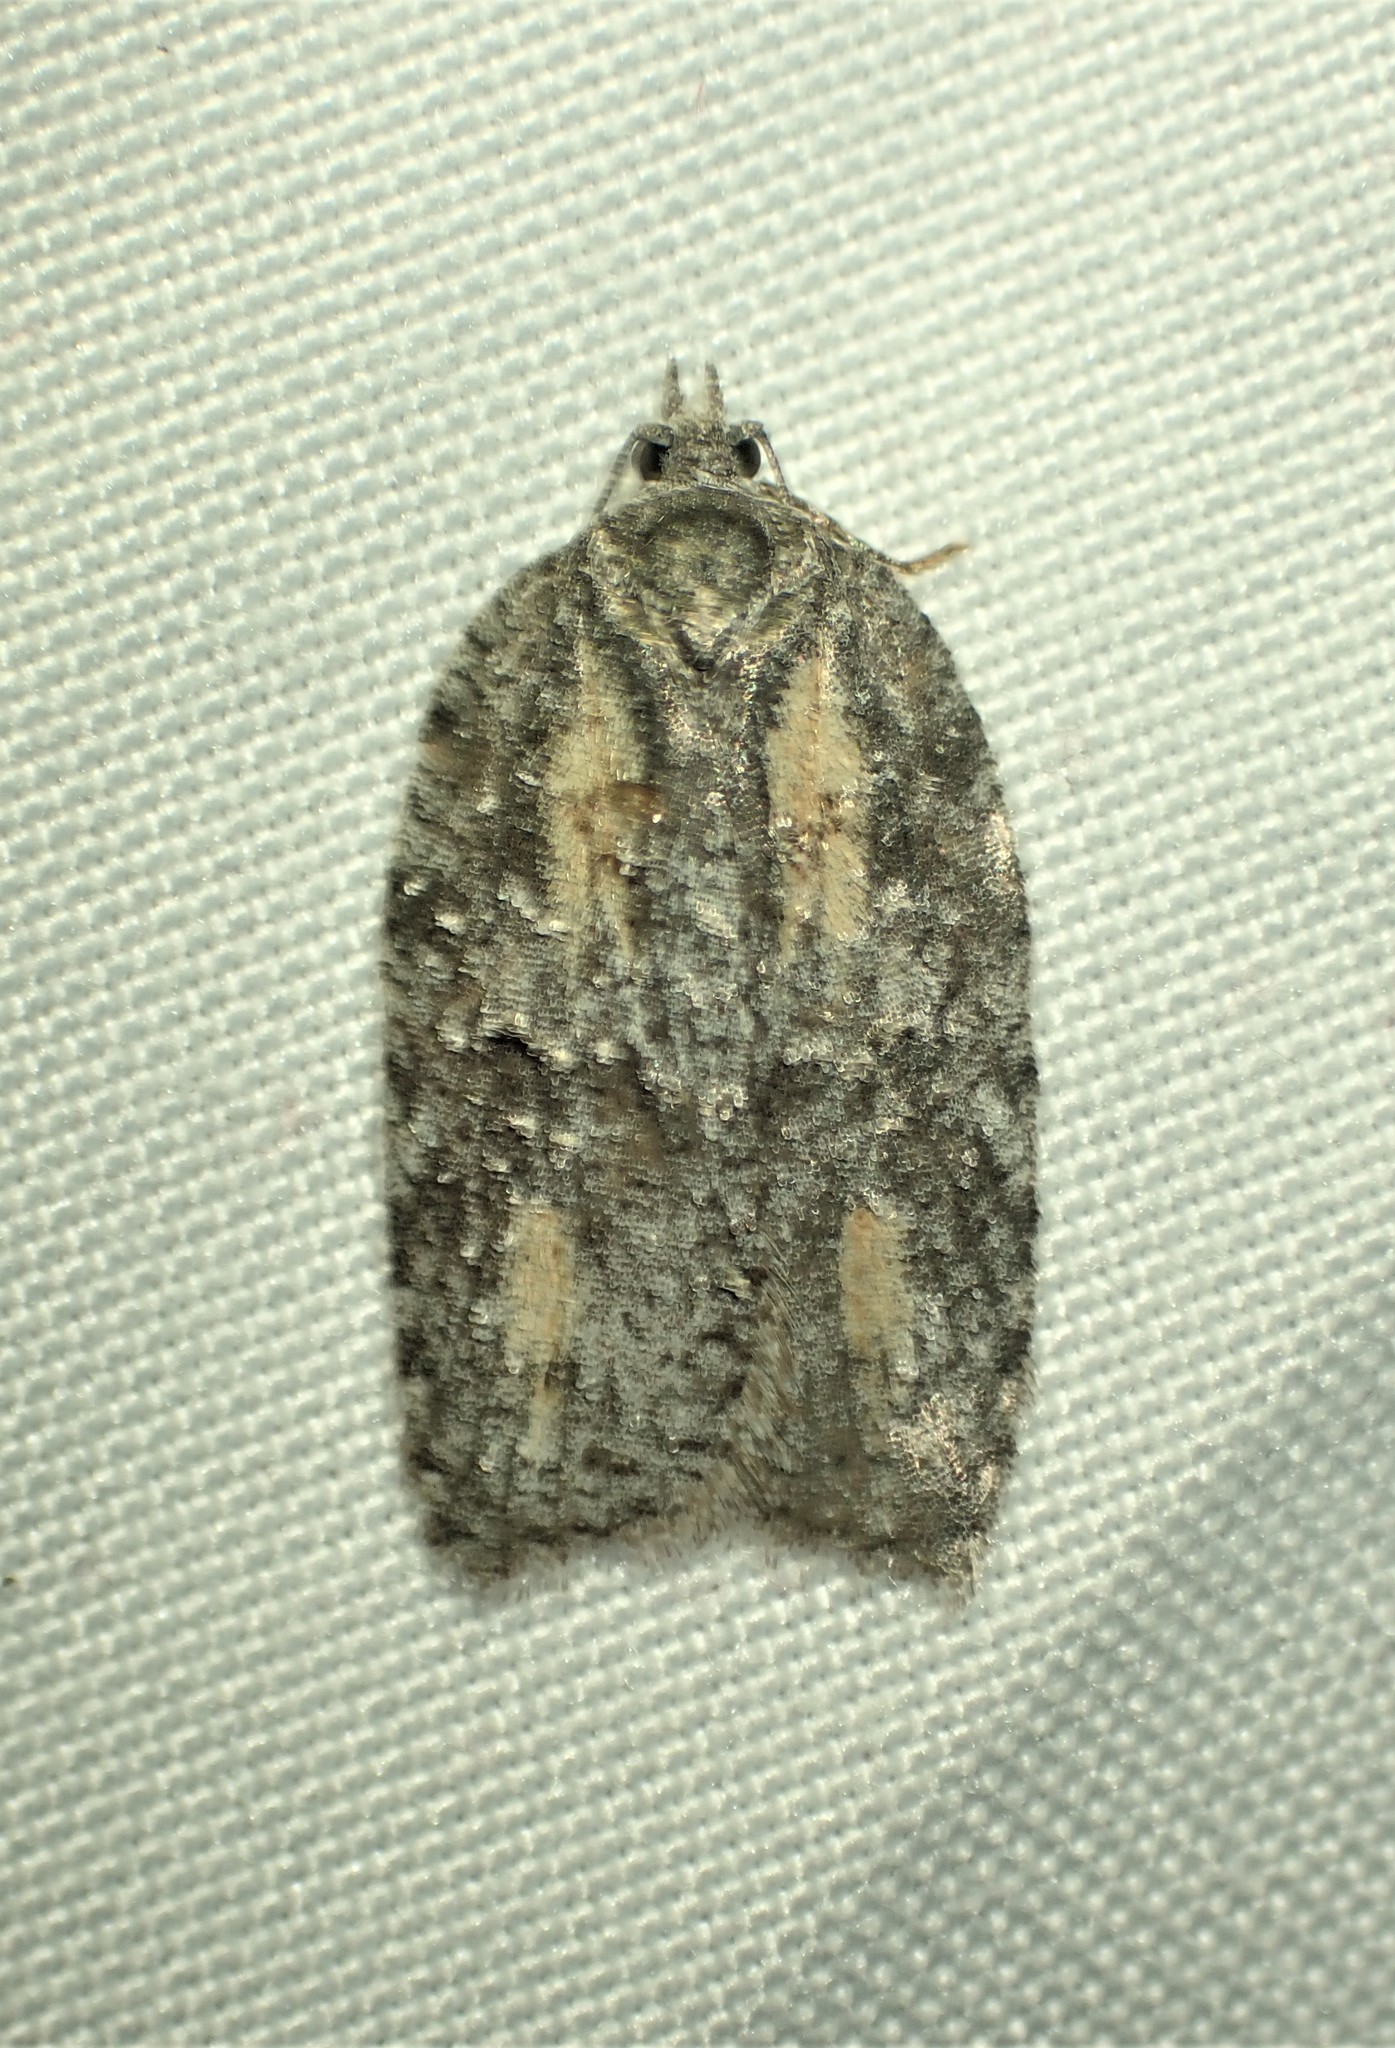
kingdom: Animalia
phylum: Arthropoda
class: Insecta
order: Lepidoptera
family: Tortricidae
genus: Acleris
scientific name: Acleris nigrolinea
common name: Black-lined acleris
